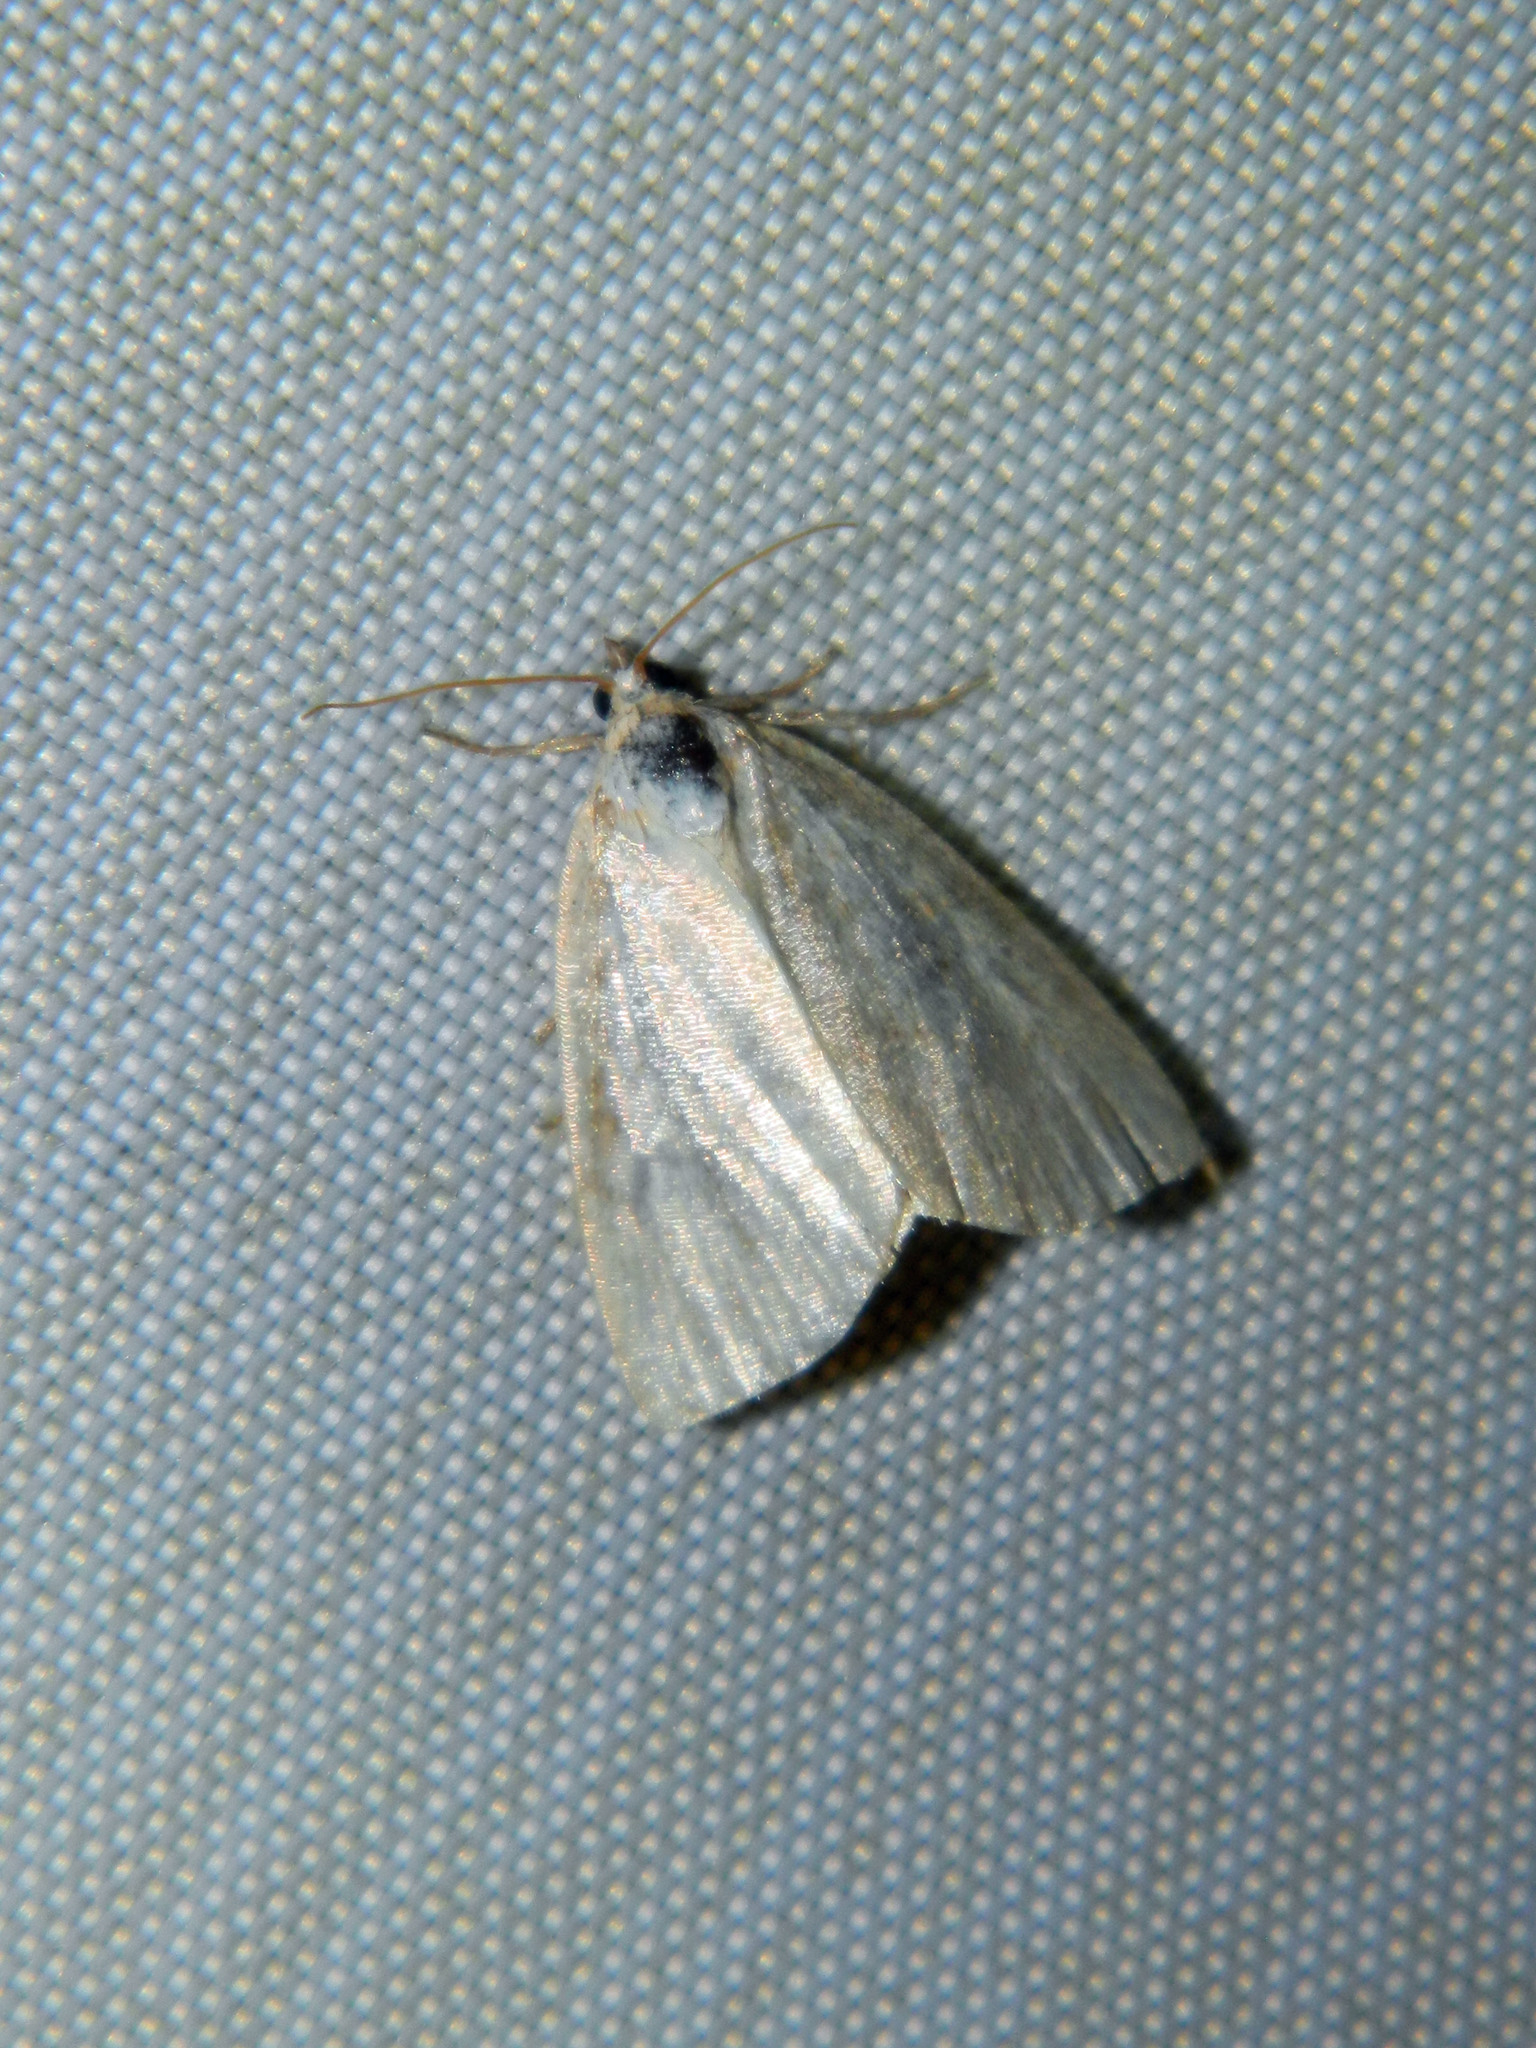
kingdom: Animalia
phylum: Arthropoda
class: Insecta
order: Lepidoptera
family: Noctuidae
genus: Protodeltote
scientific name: Protodeltote albidula
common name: Pale glyph
